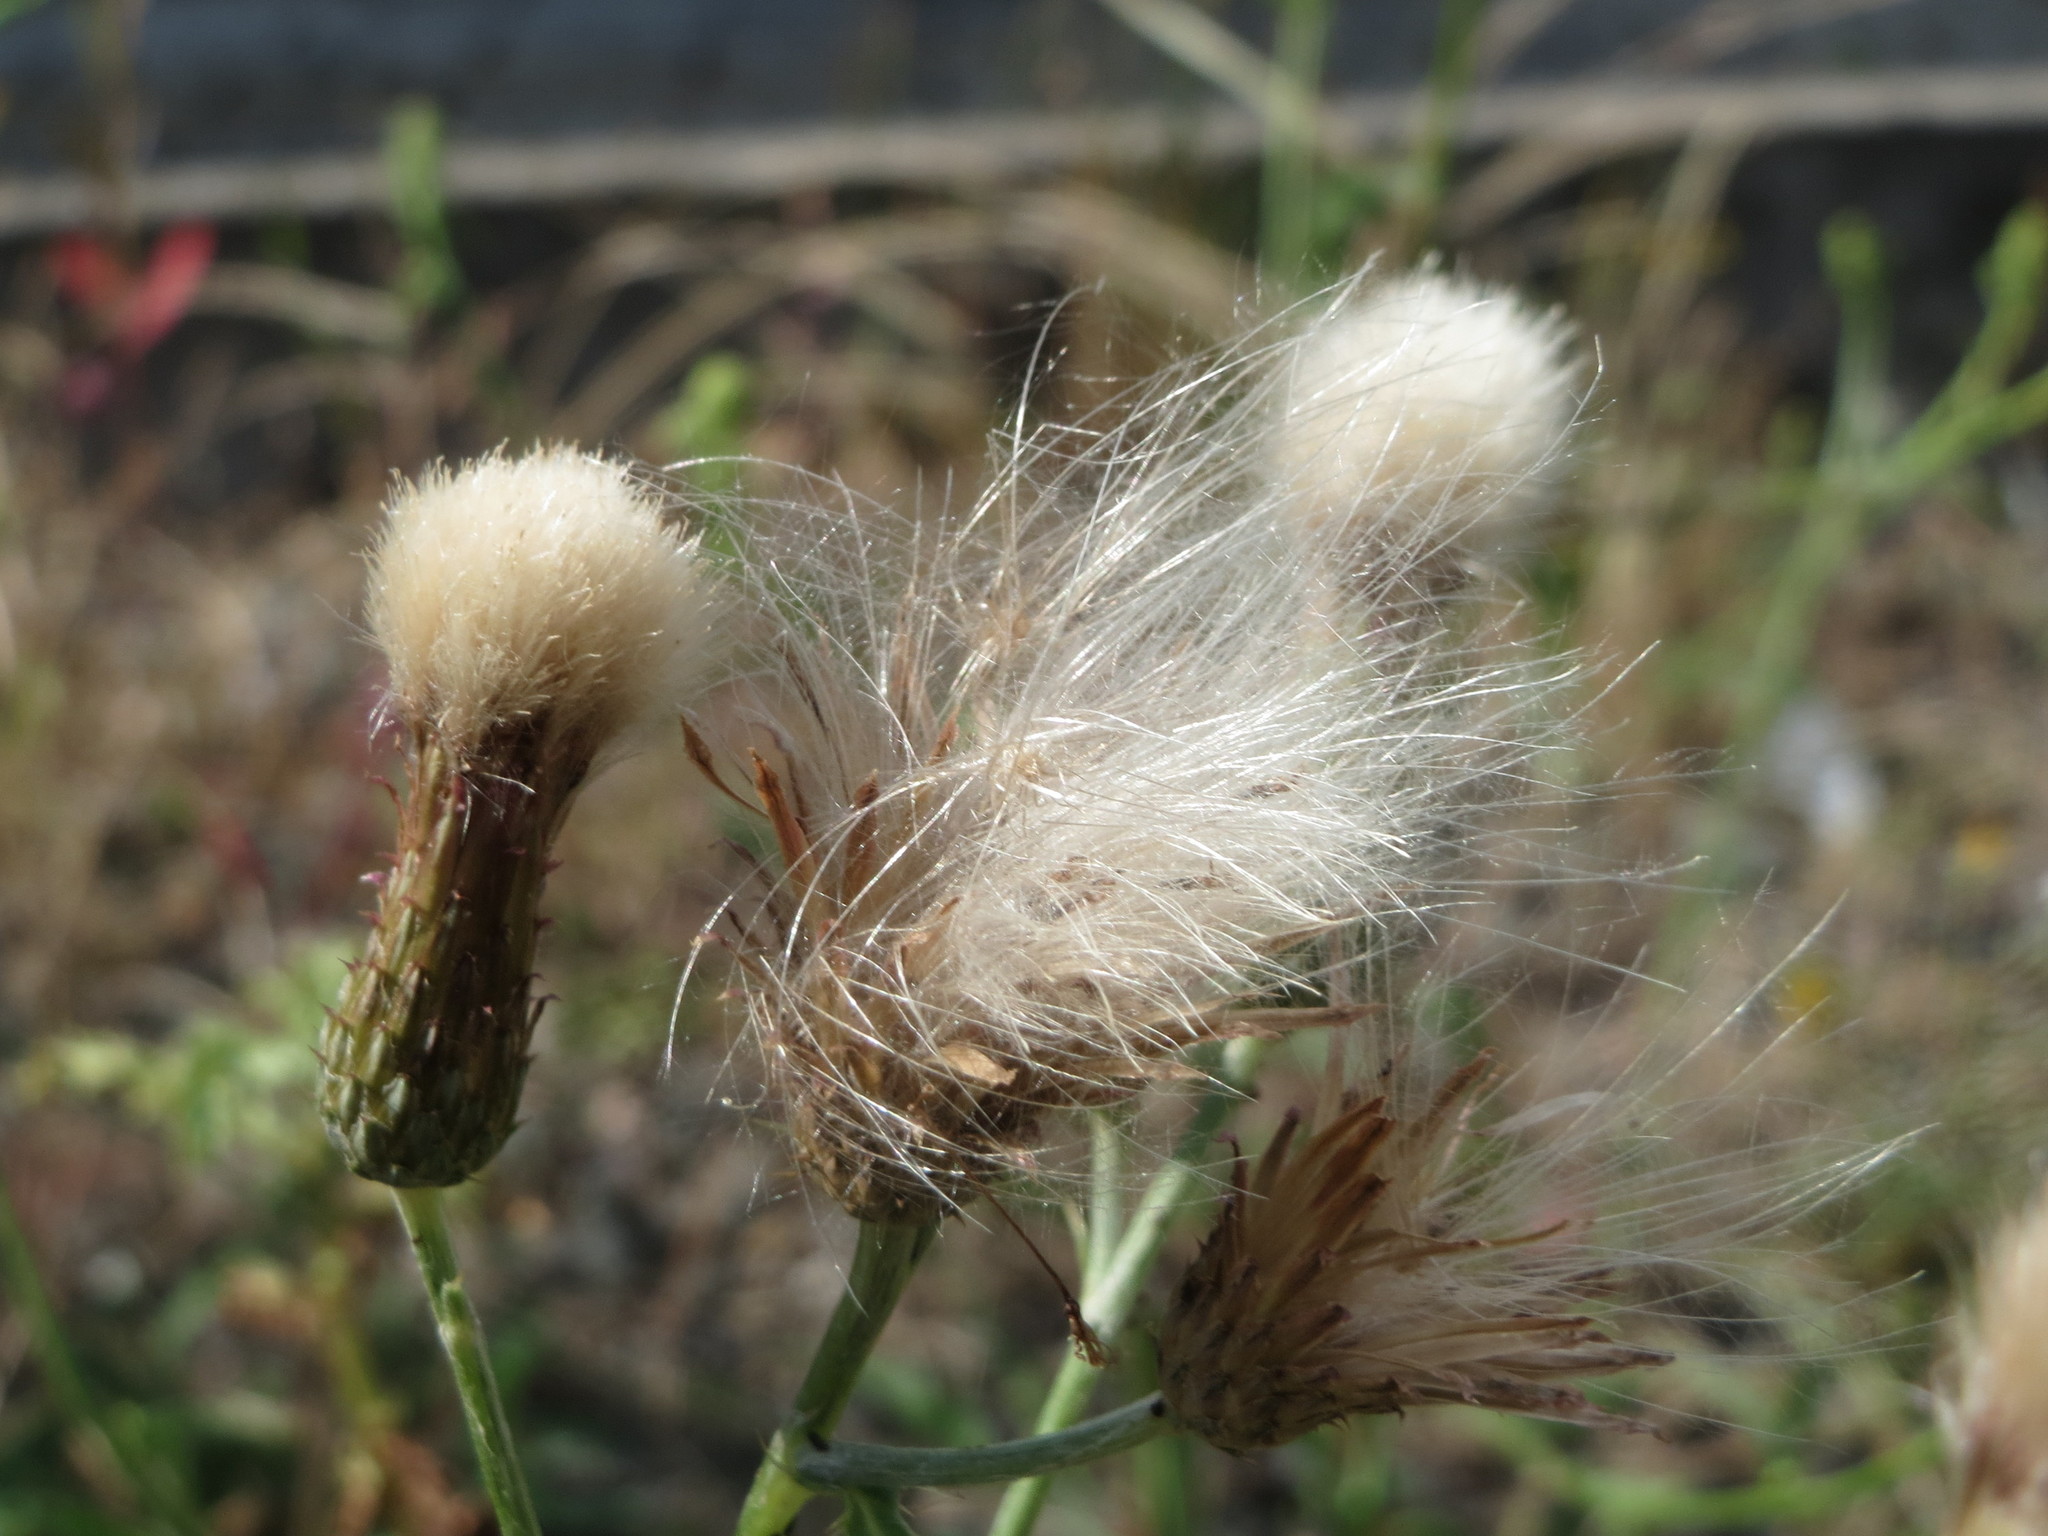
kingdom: Plantae
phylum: Tracheophyta
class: Magnoliopsida
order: Asterales
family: Asteraceae
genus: Cirsium
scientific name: Cirsium arvense
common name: Creeping thistle
